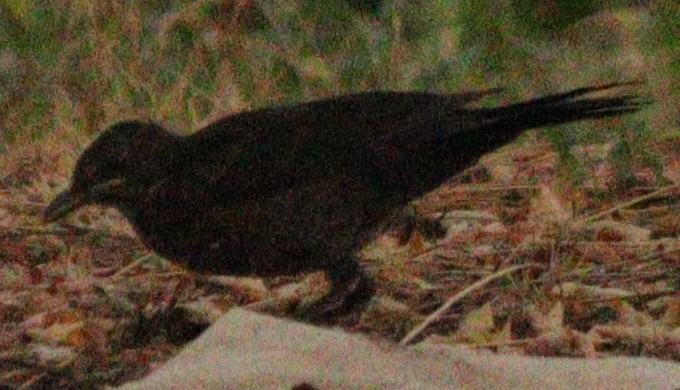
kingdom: Animalia
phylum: Chordata
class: Aves
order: Passeriformes
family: Turdidae
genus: Turdus
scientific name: Turdus merula
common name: Common blackbird
